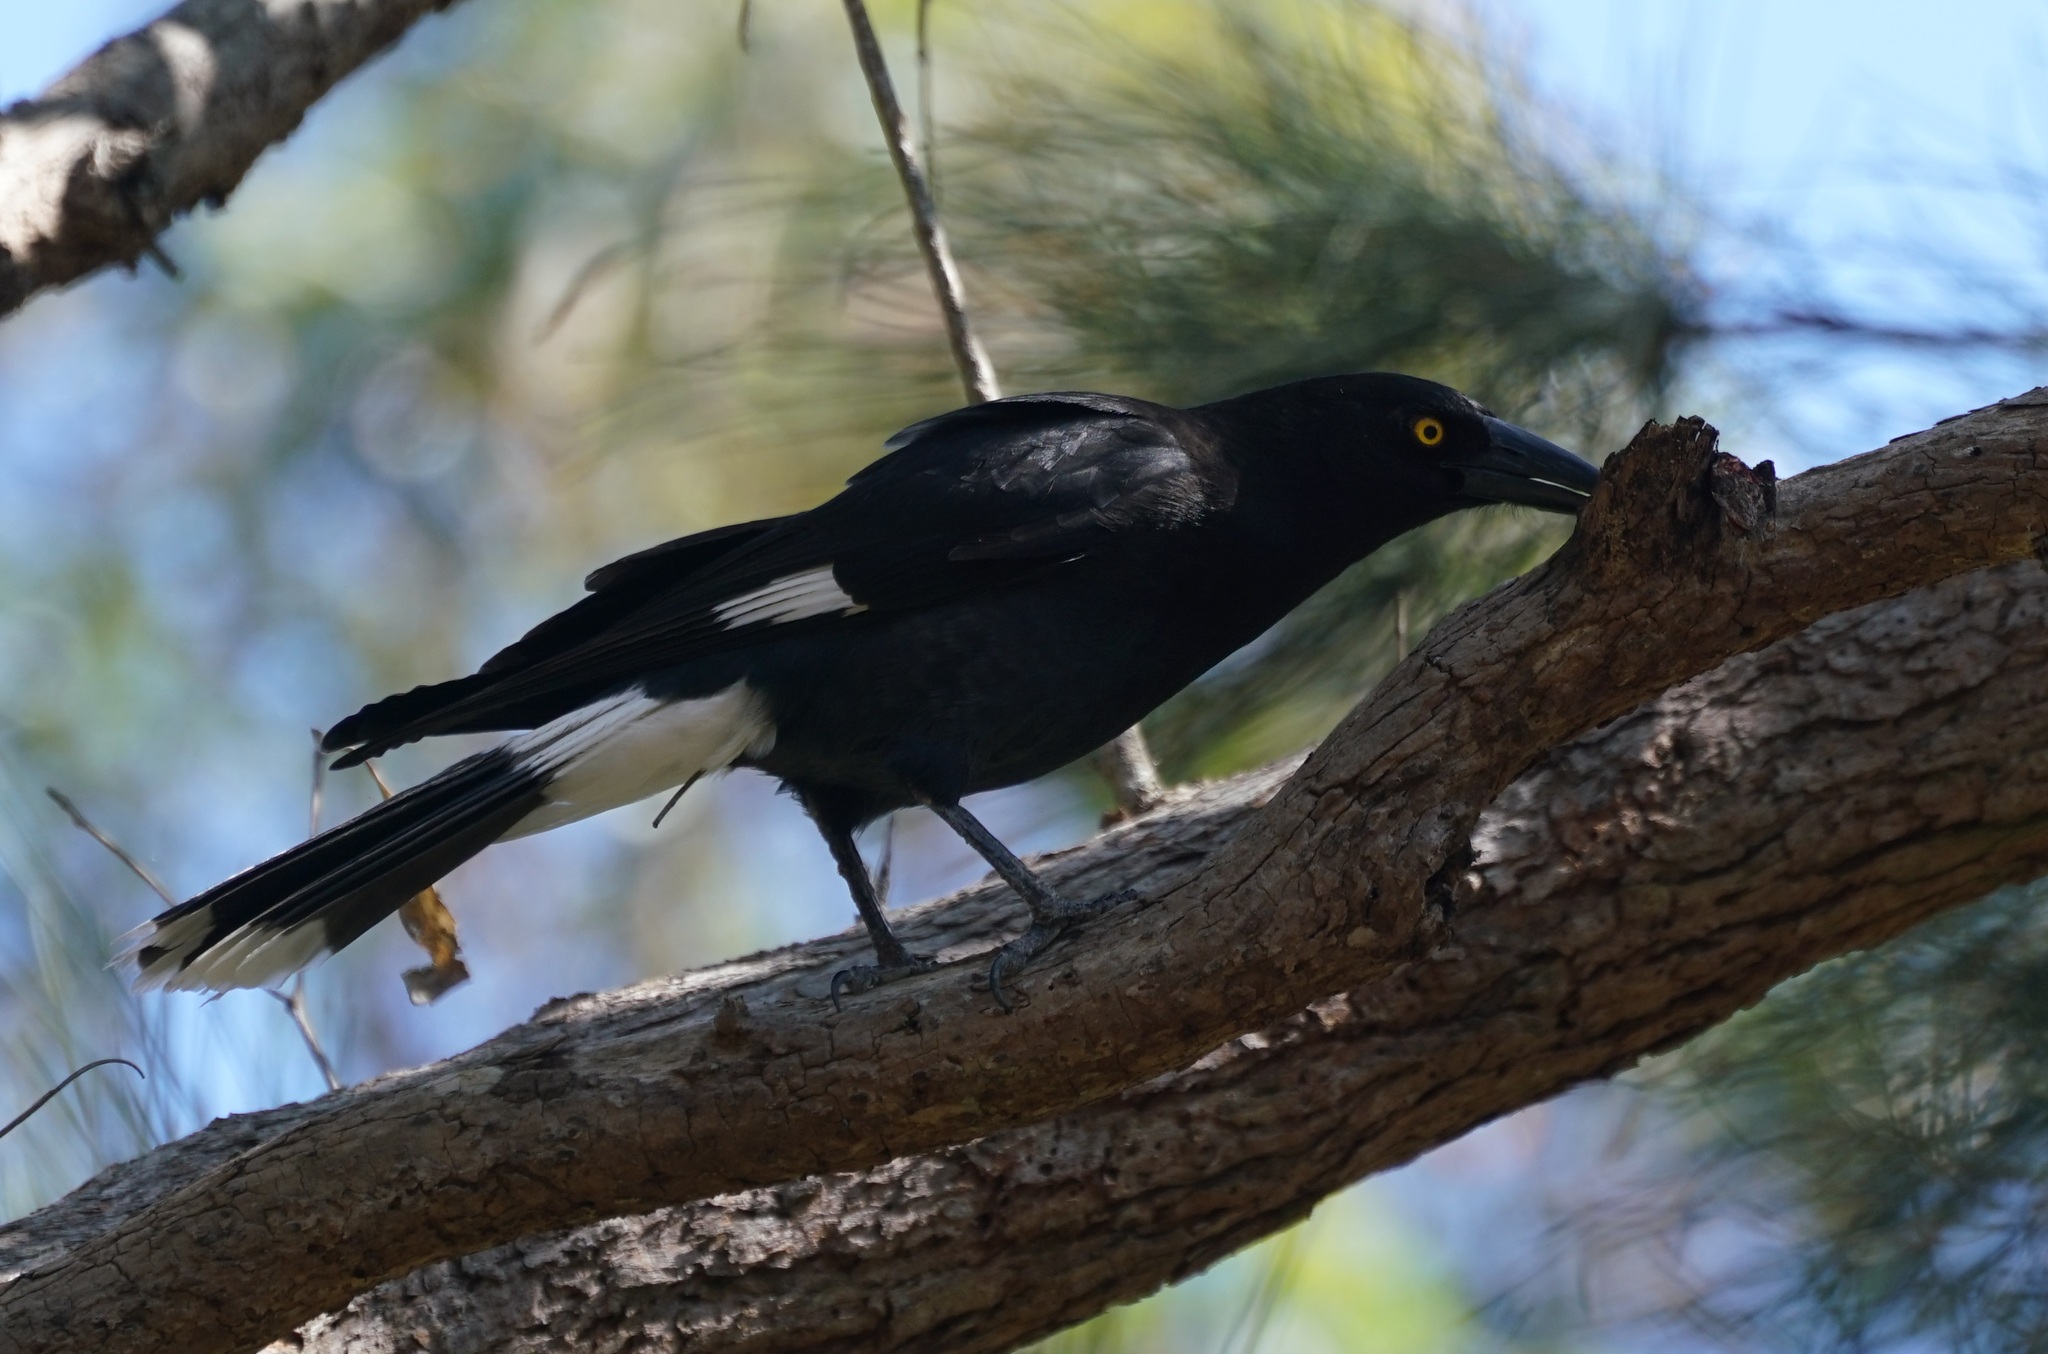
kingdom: Animalia
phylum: Chordata
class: Aves
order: Passeriformes
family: Cracticidae
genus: Strepera
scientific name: Strepera graculina
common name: Pied currawong
